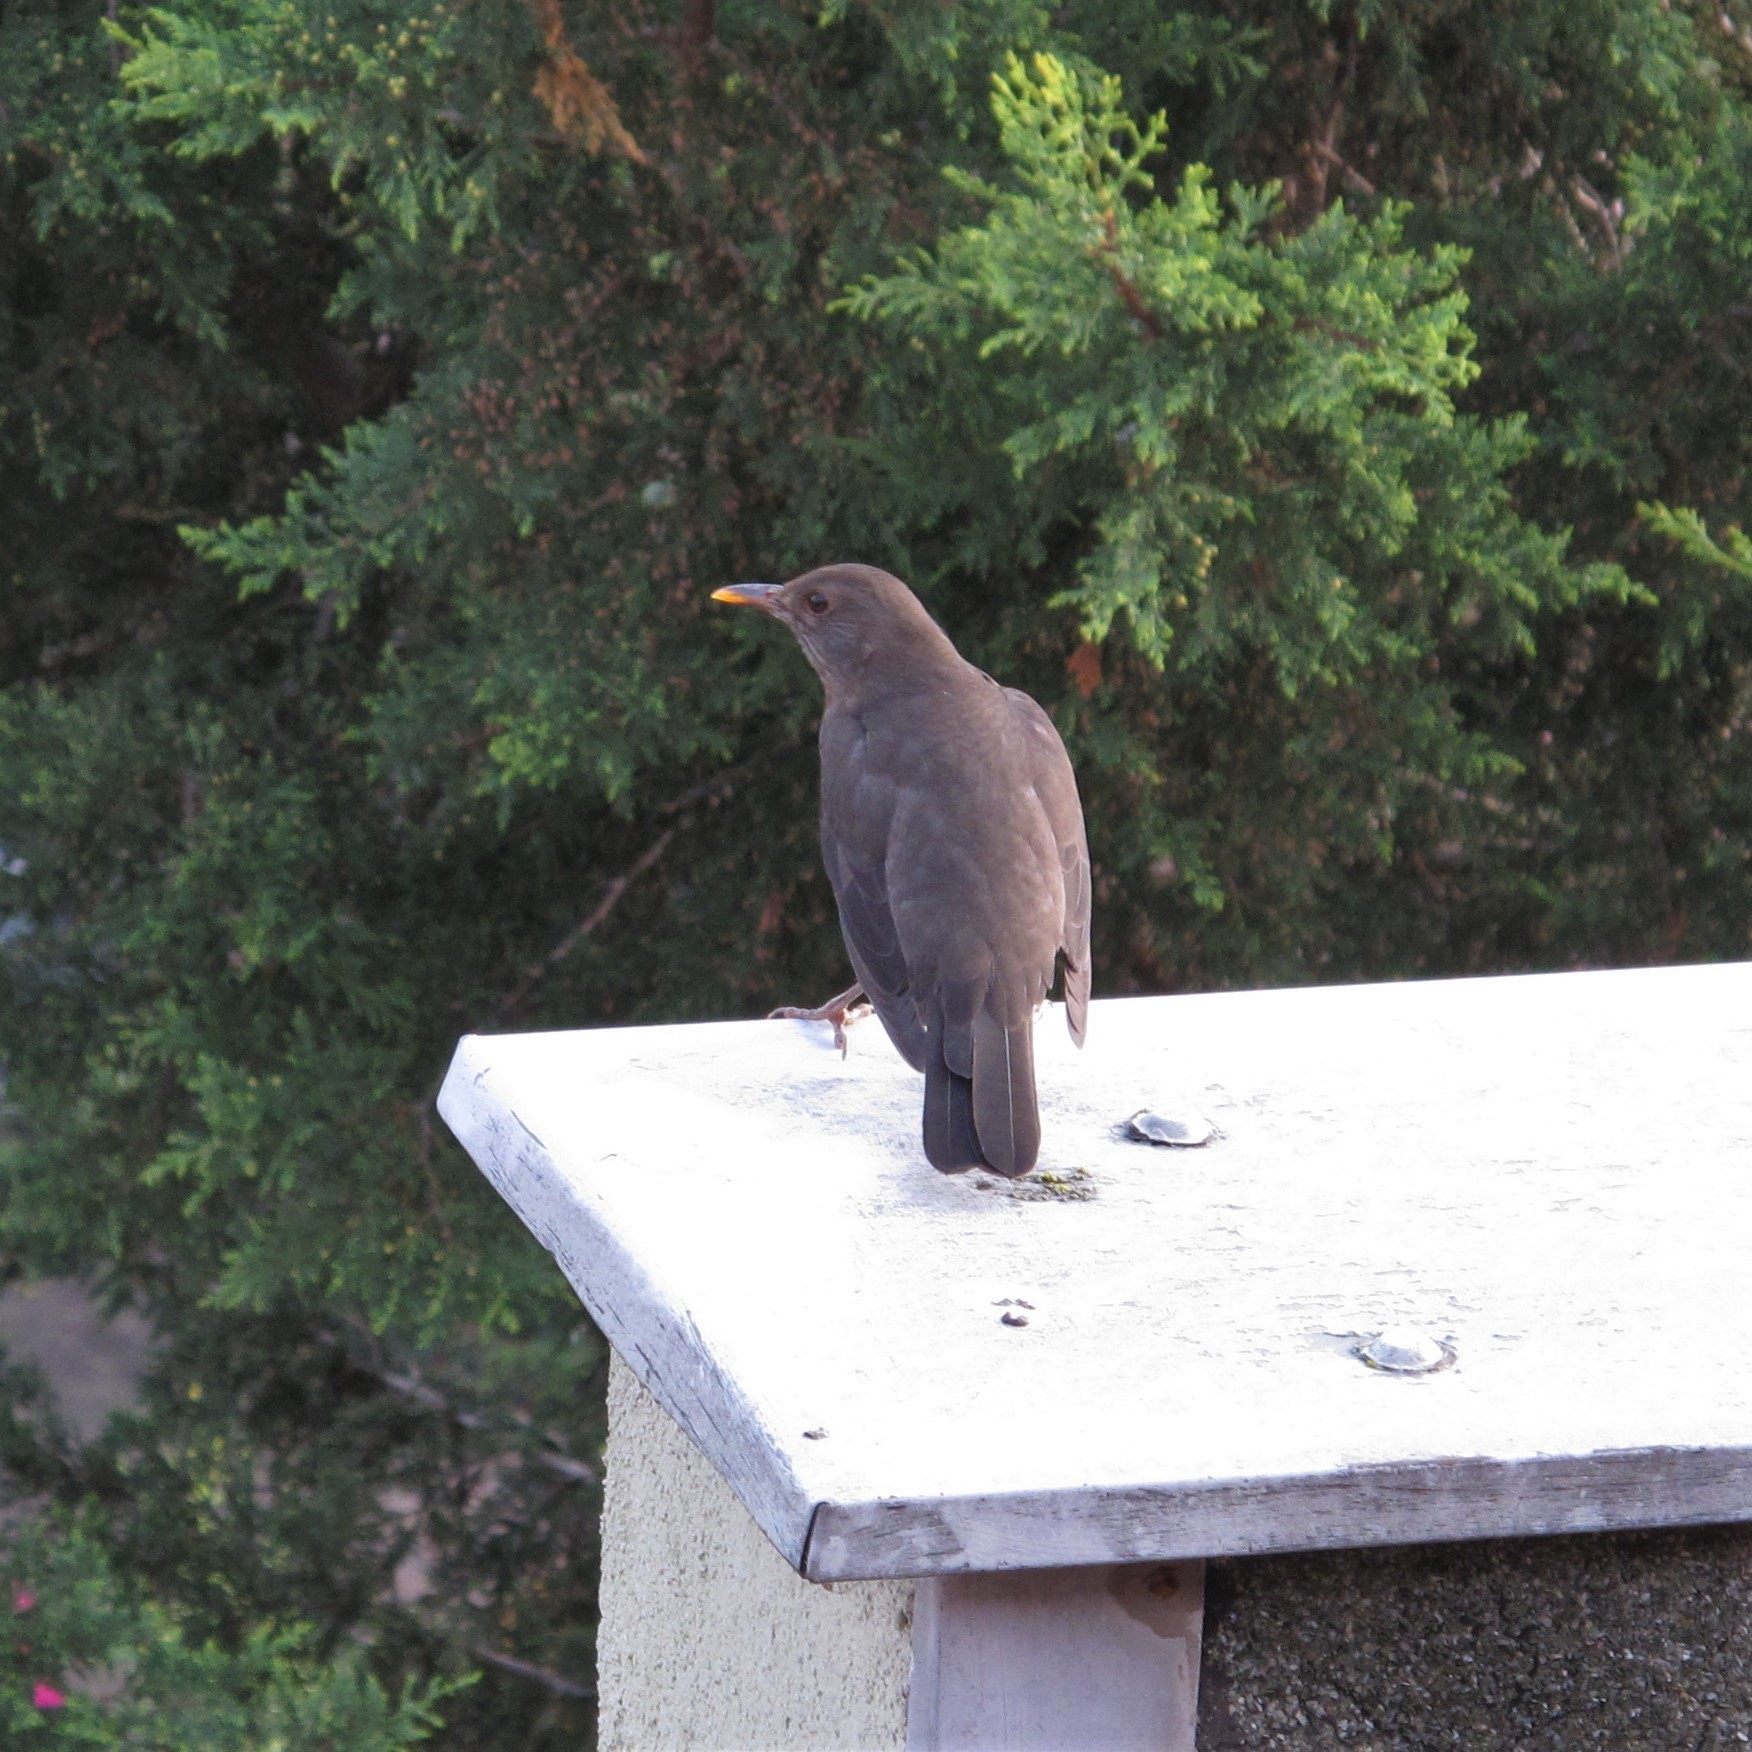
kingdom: Animalia
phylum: Chordata
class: Aves
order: Passeriformes
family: Turdidae
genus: Turdus
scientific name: Turdus merula
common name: Common blackbird
